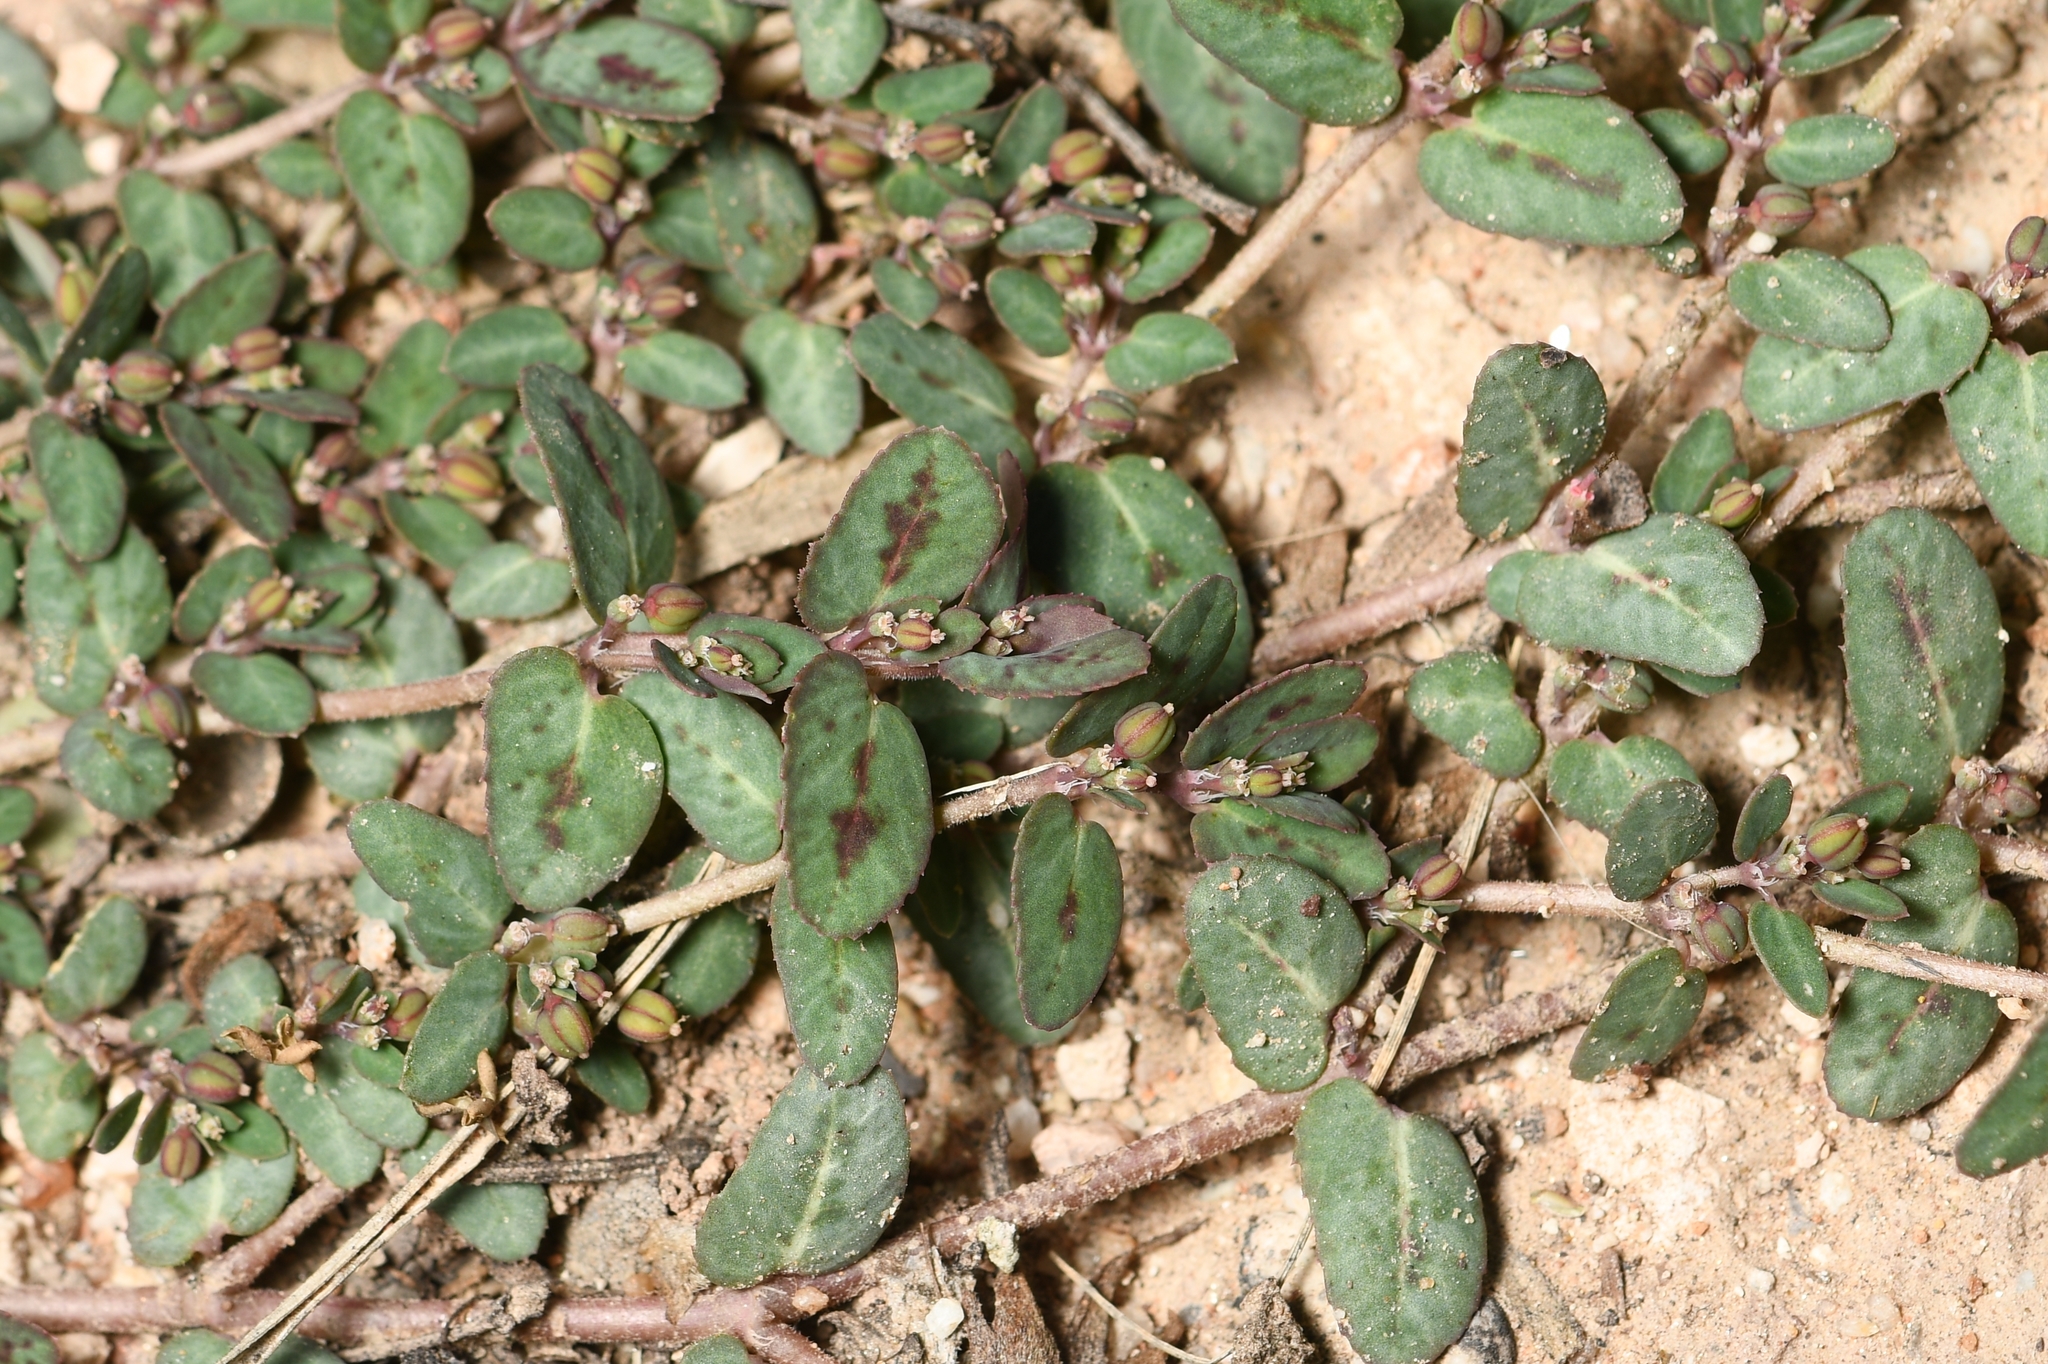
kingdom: Plantae
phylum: Tracheophyta
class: Magnoliopsida
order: Malpighiales
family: Euphorbiaceae
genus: Euphorbia
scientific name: Euphorbia abramsiana
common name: Abram's spurge
